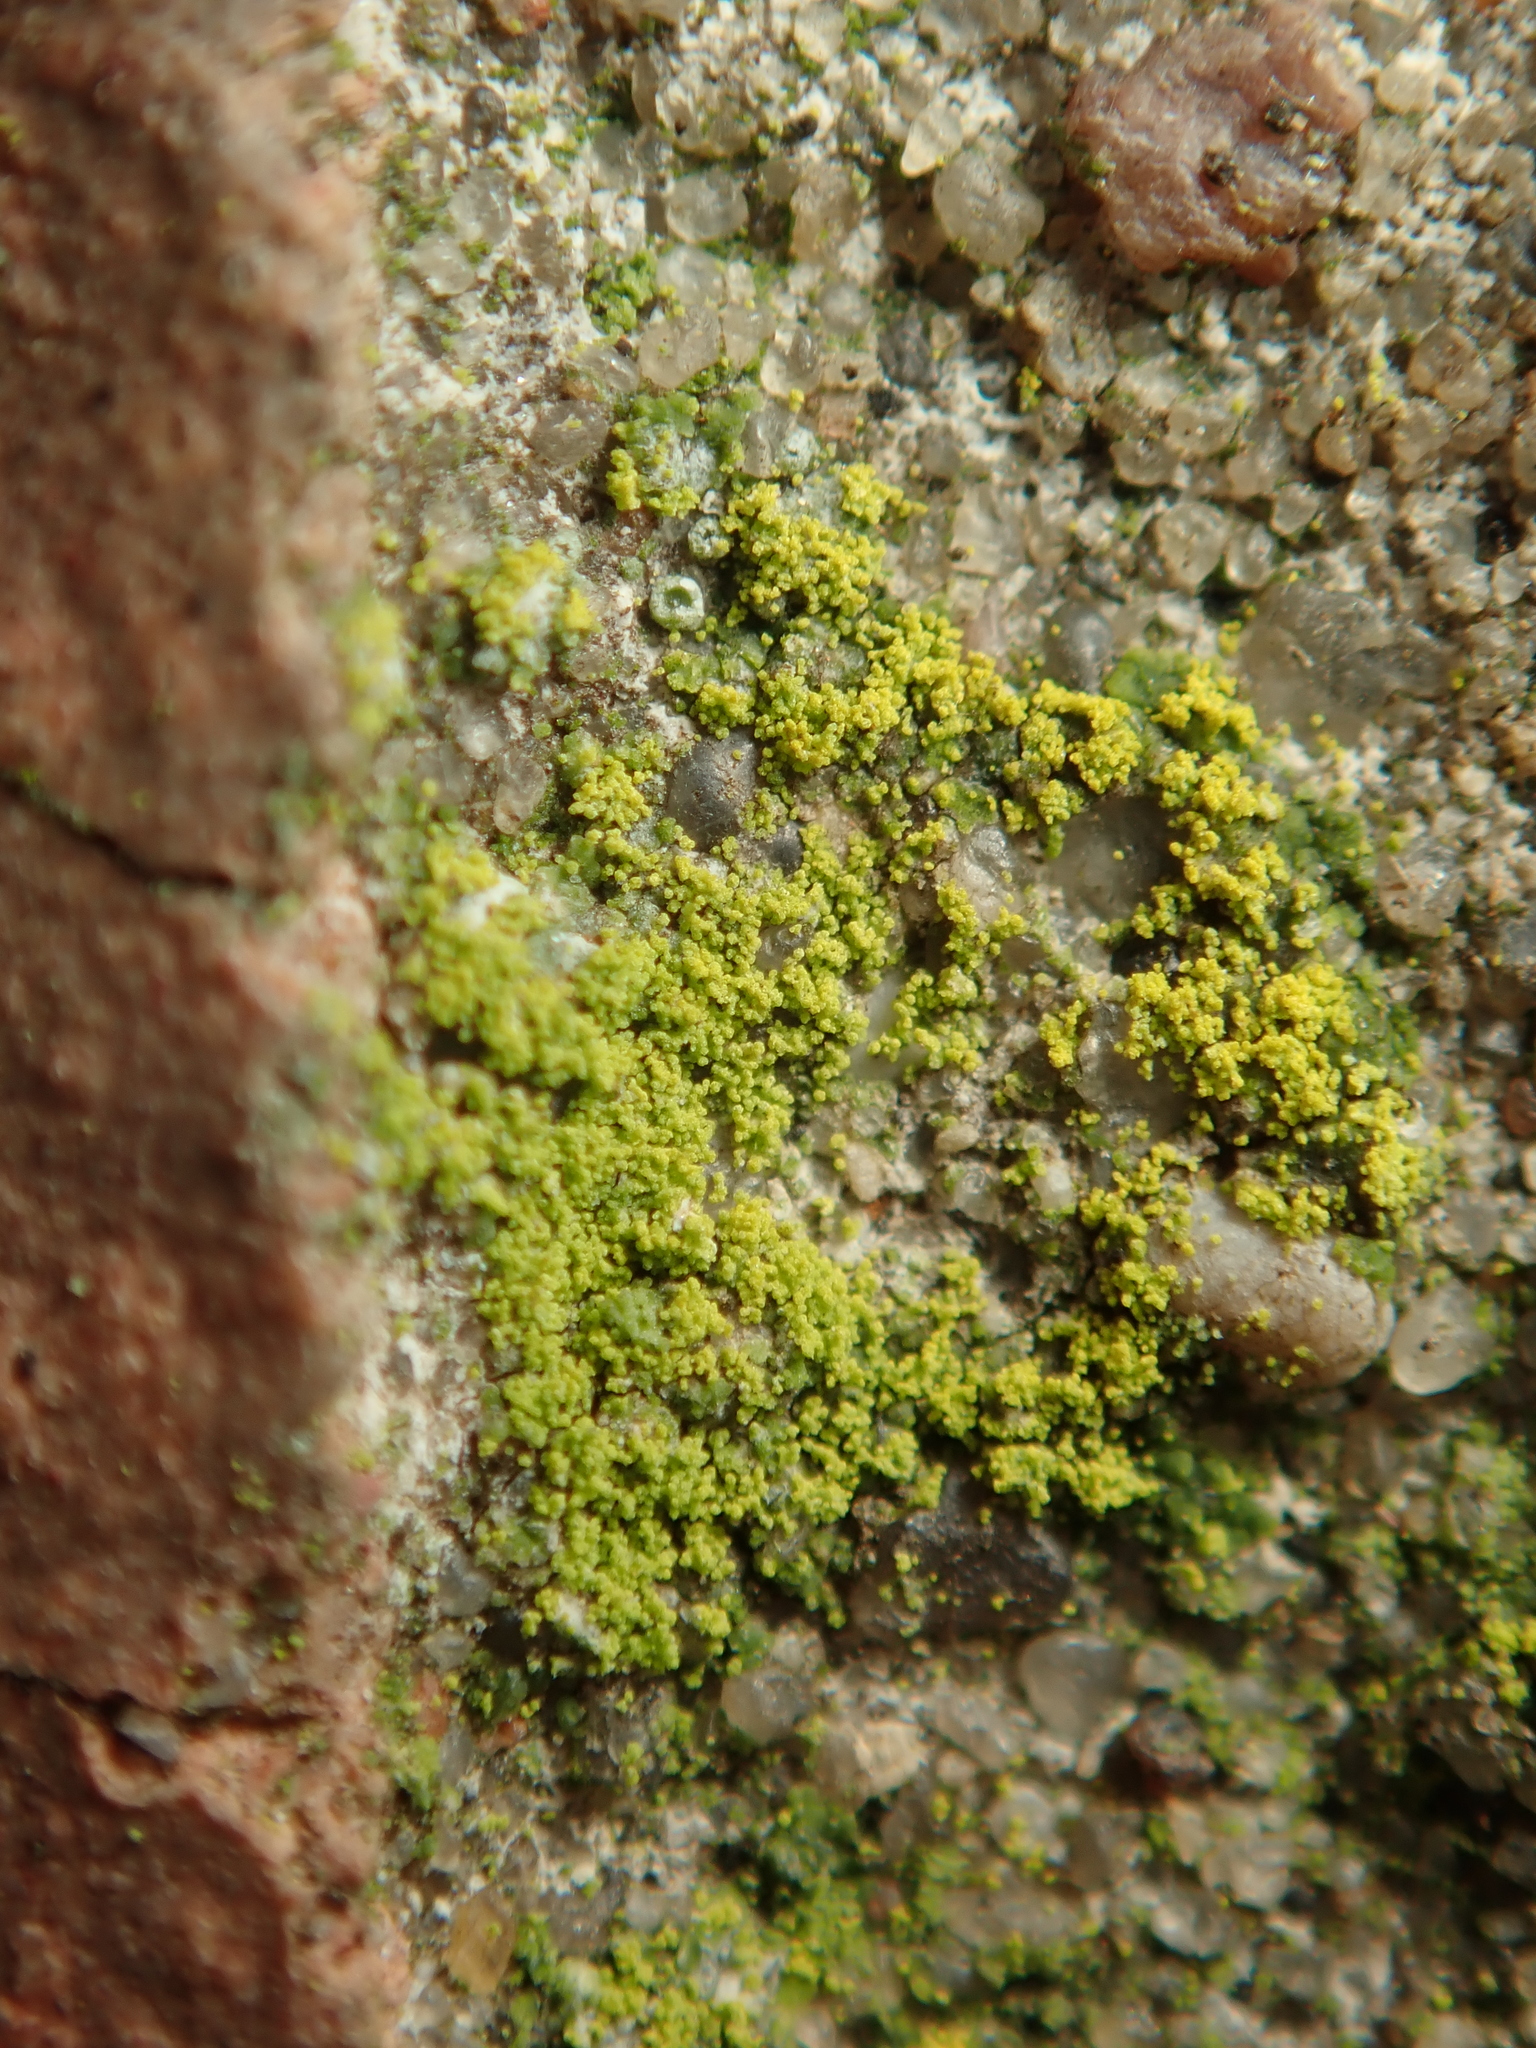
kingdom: Fungi
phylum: Ascomycota
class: Lecanoromycetes
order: Teloschistales
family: Teloschistaceae
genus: Flavoplaca
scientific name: Flavoplaca
